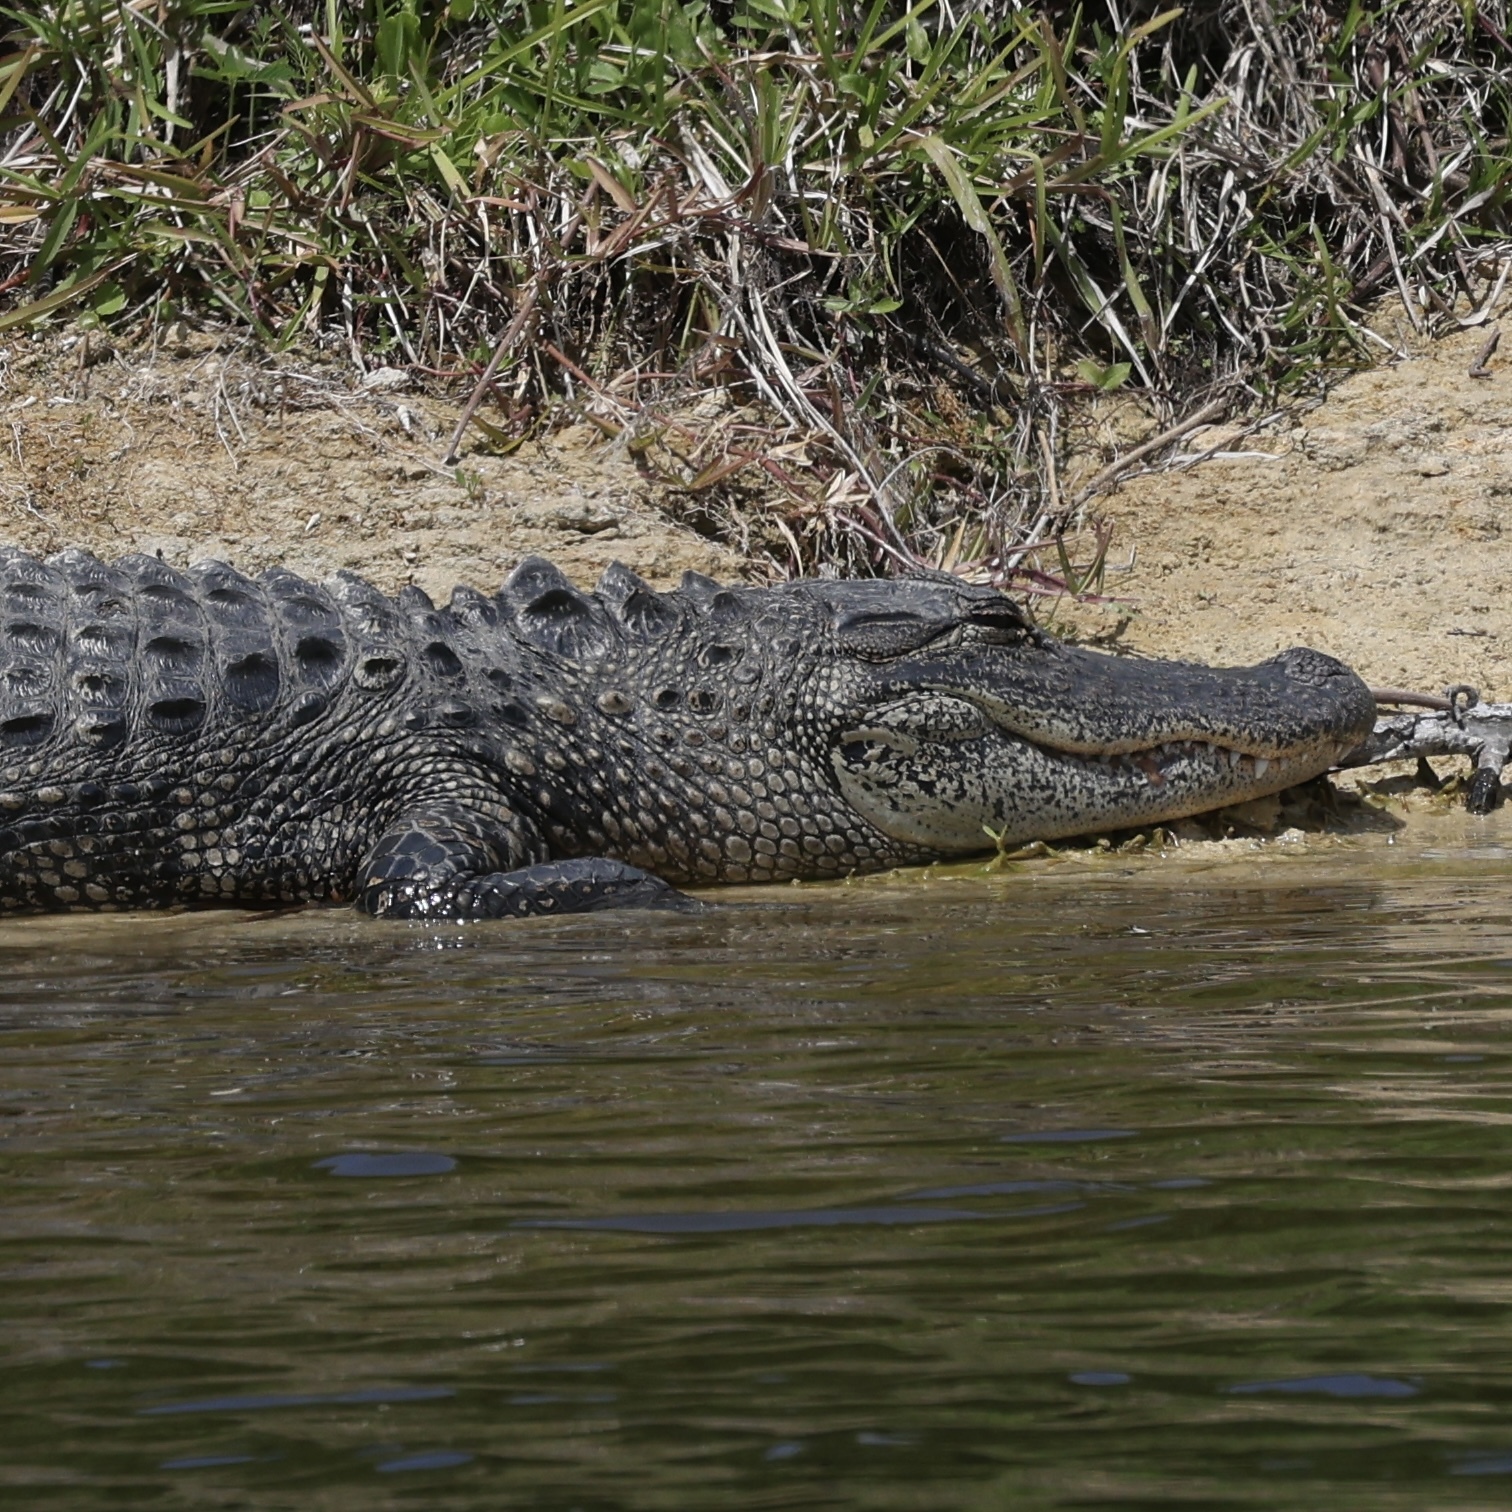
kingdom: Animalia
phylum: Chordata
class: Crocodylia
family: Alligatoridae
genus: Alligator
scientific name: Alligator mississippiensis
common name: American alligator
